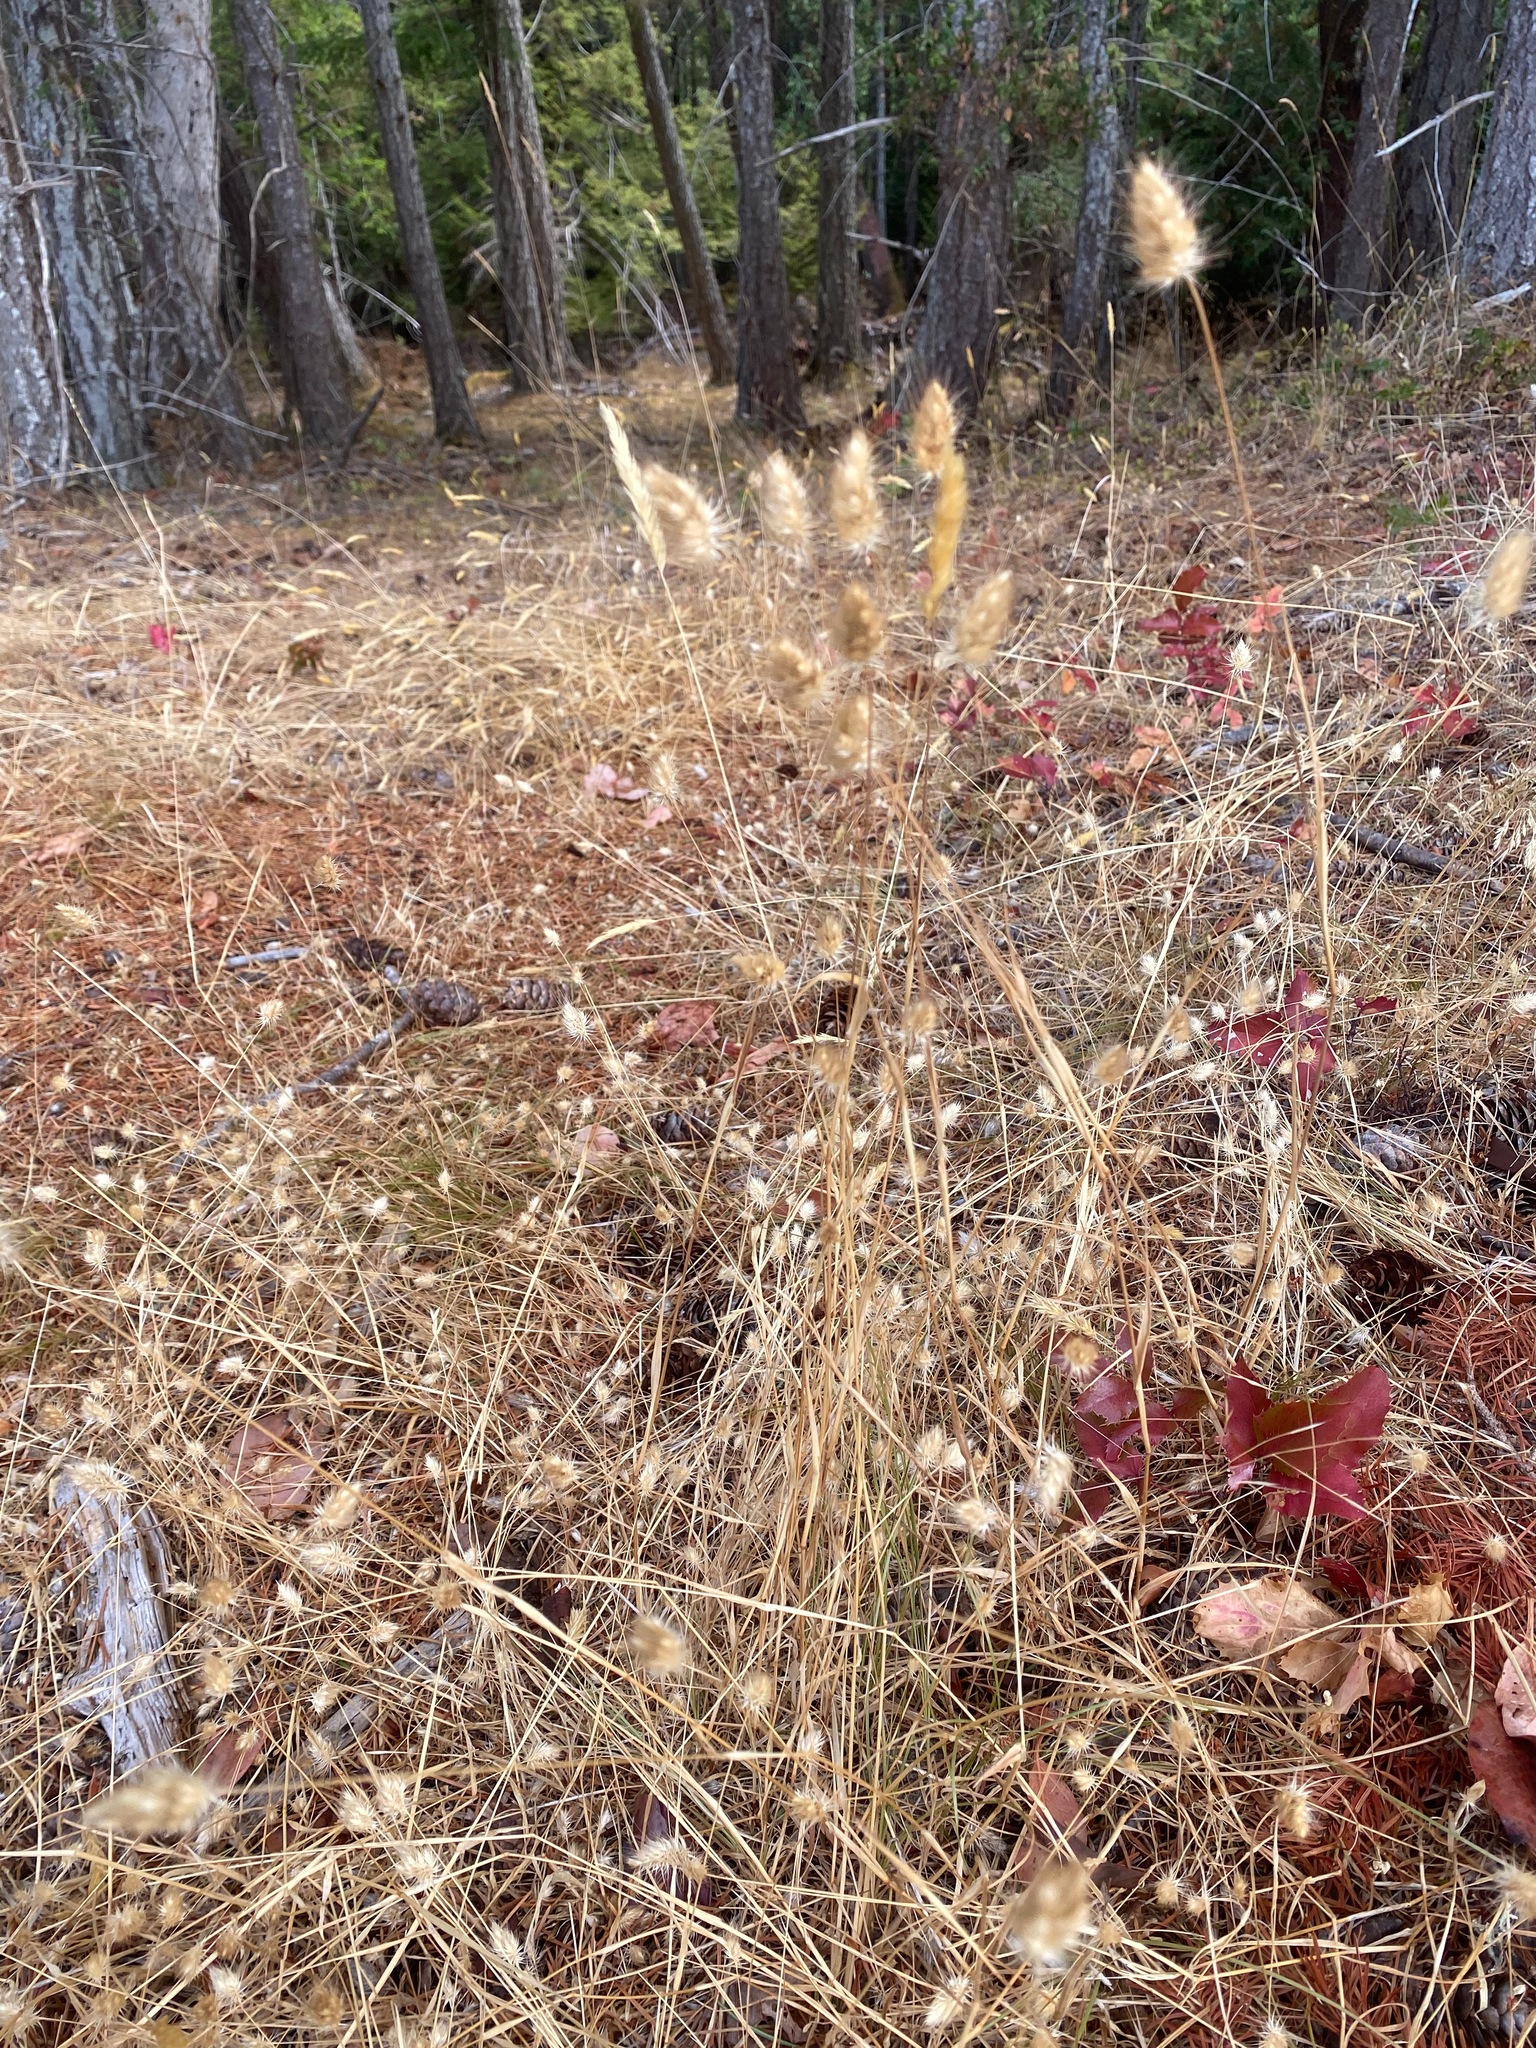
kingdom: Plantae
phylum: Tracheophyta
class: Liliopsida
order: Poales
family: Poaceae
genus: Cynosurus
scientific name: Cynosurus echinatus
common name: Rough dog's-tail
